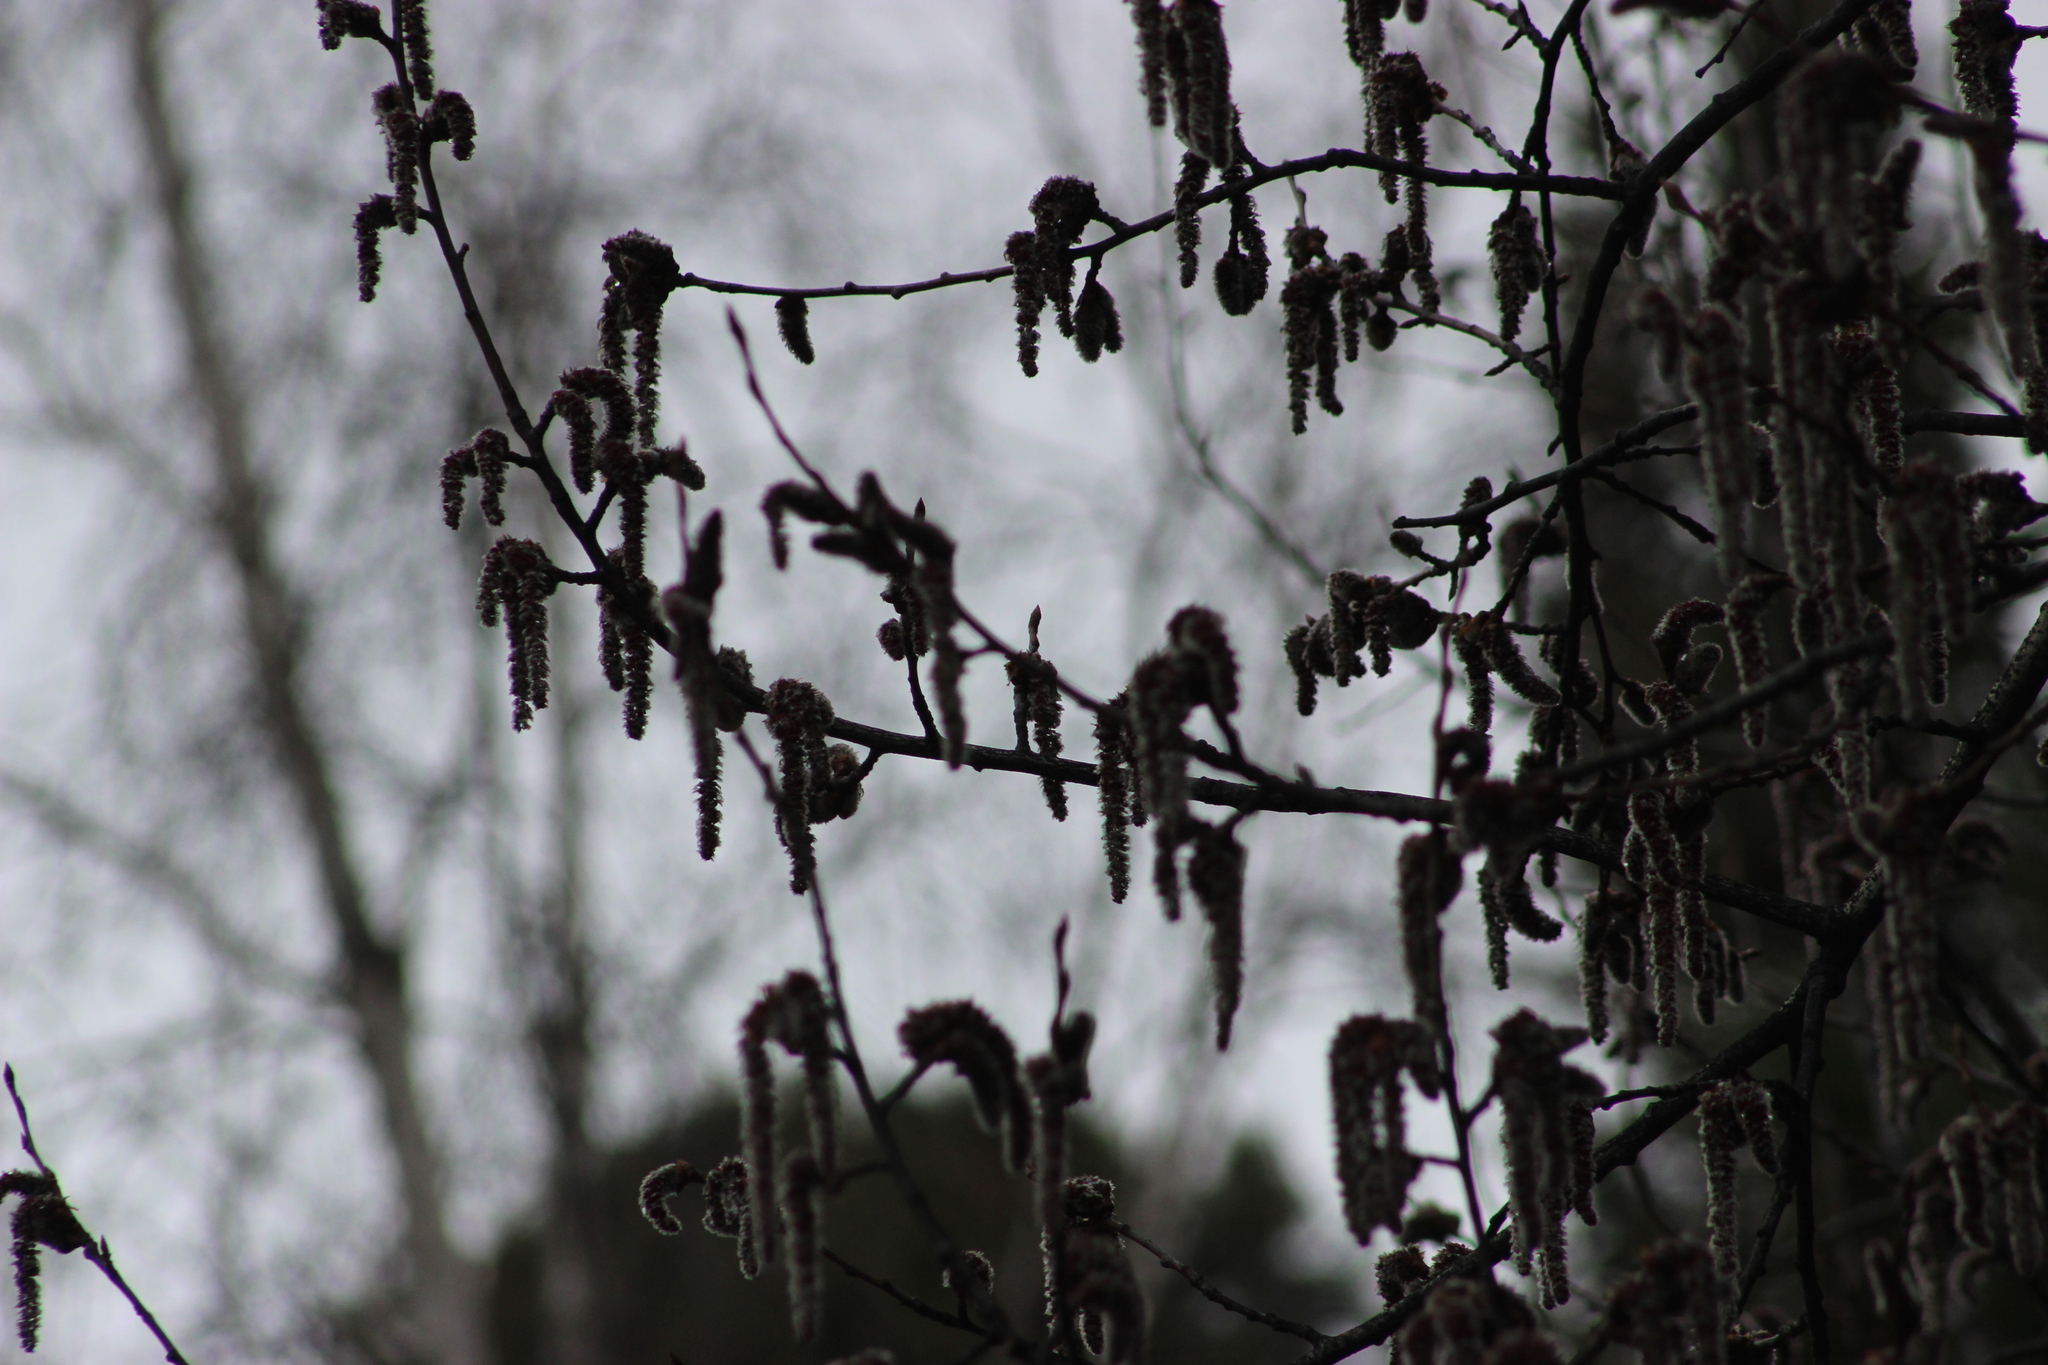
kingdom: Plantae
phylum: Tracheophyta
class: Magnoliopsida
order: Malpighiales
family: Salicaceae
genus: Populus
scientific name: Populus tremula
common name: European aspen
